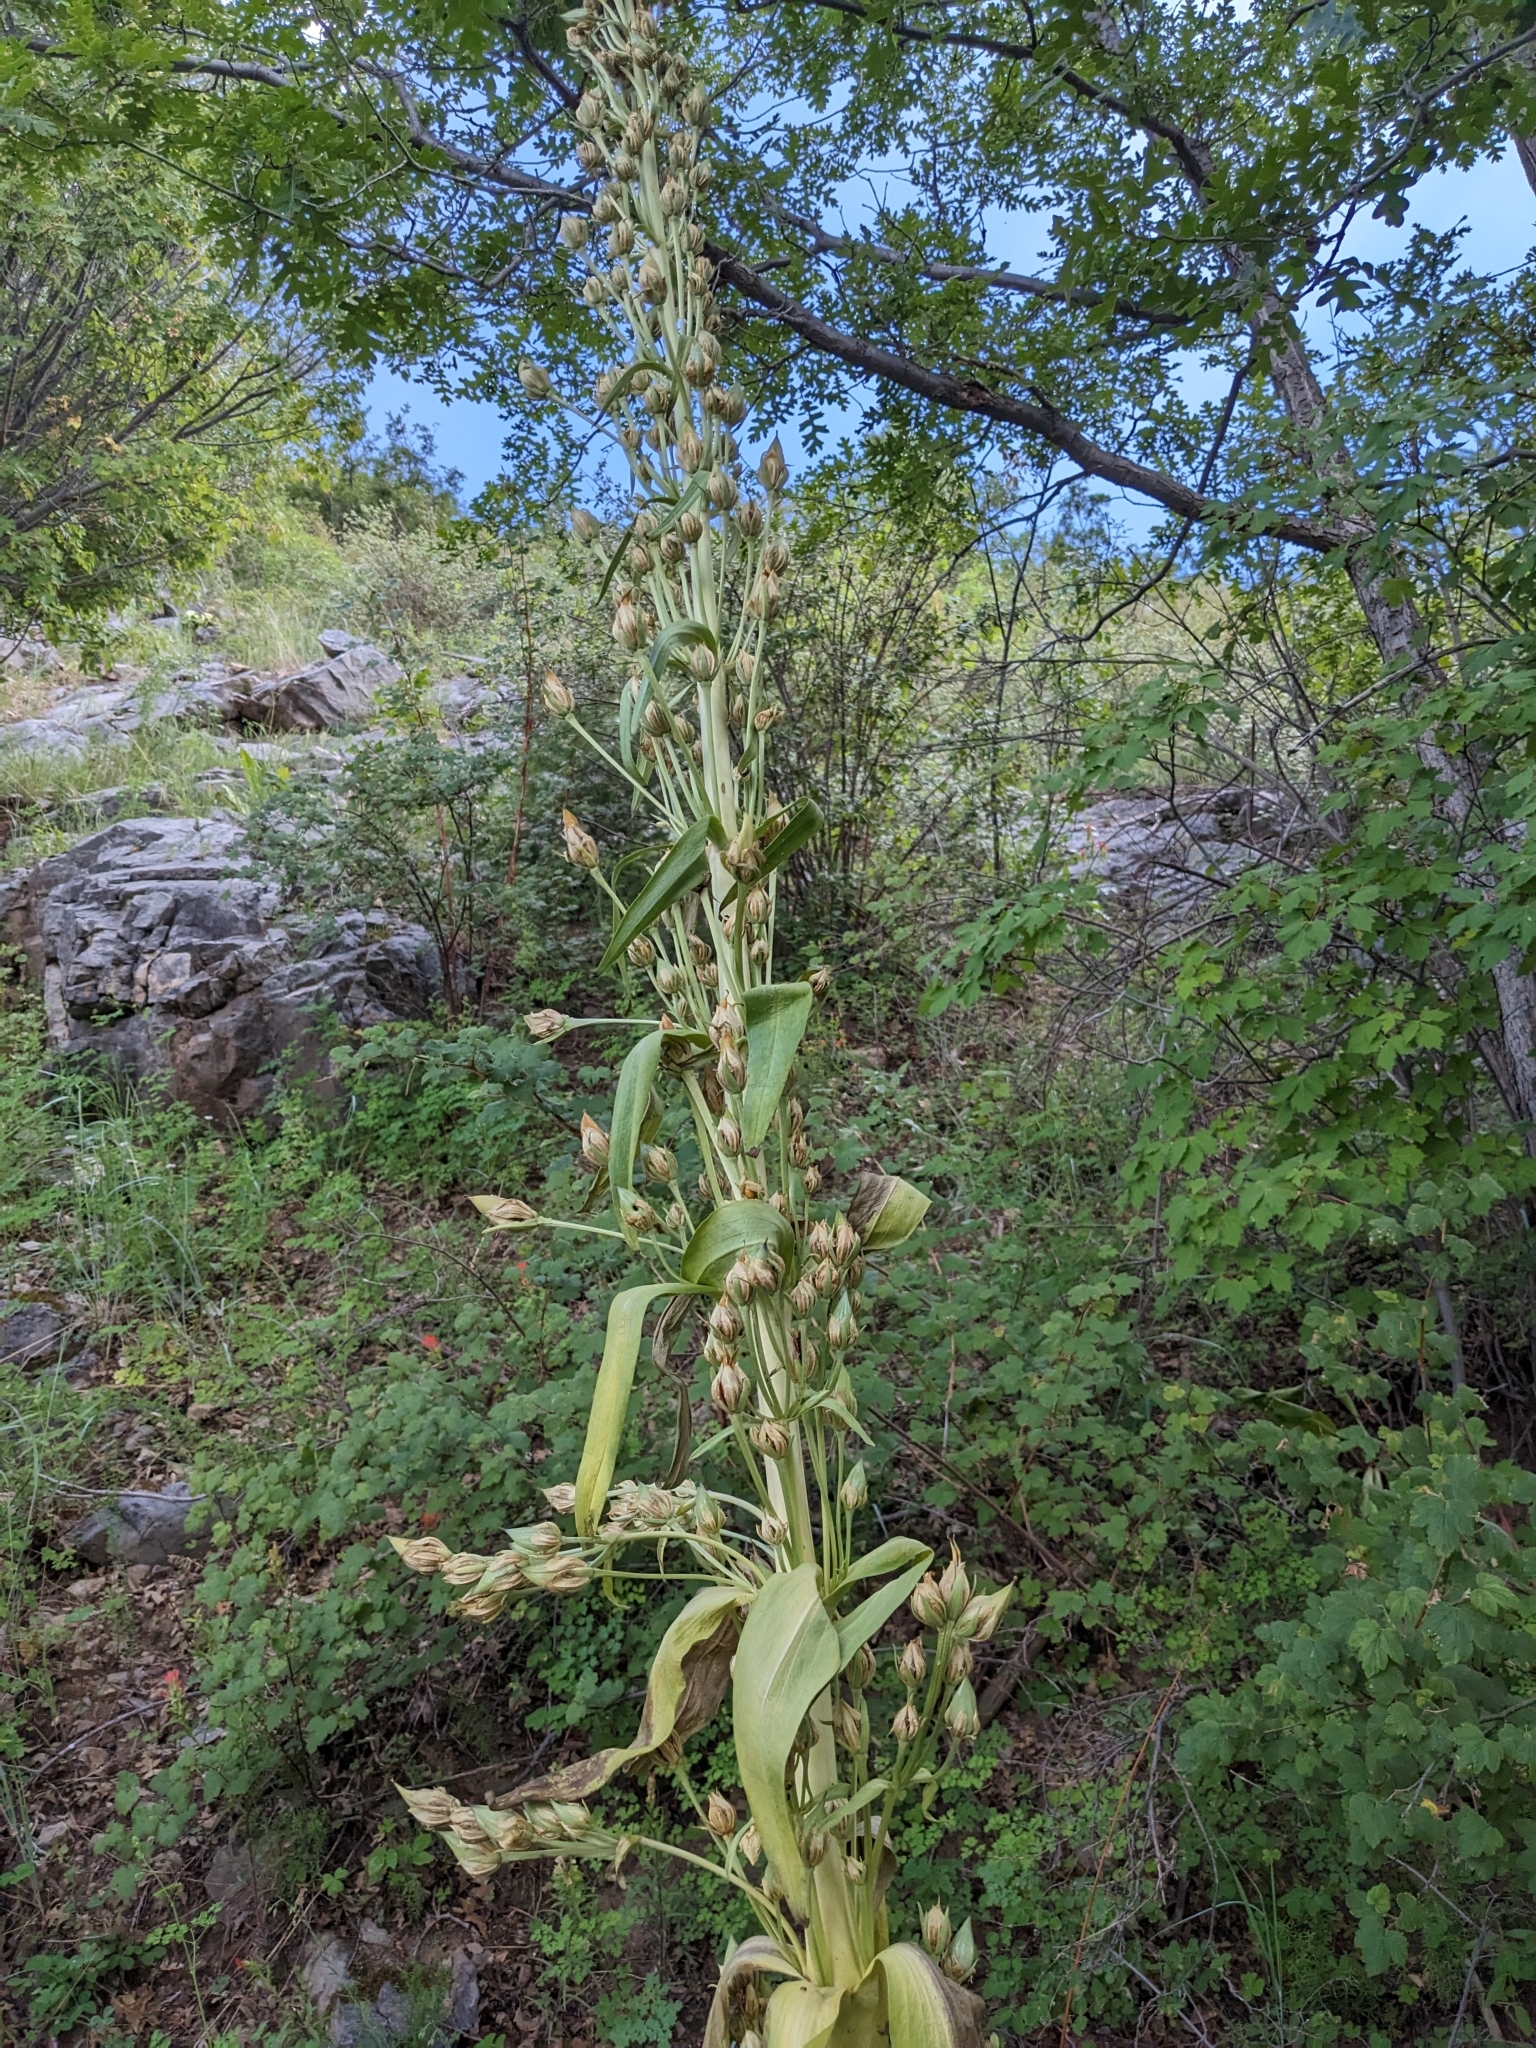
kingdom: Plantae
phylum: Tracheophyta
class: Magnoliopsida
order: Gentianales
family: Gentianaceae
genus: Frasera
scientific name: Frasera speciosa
